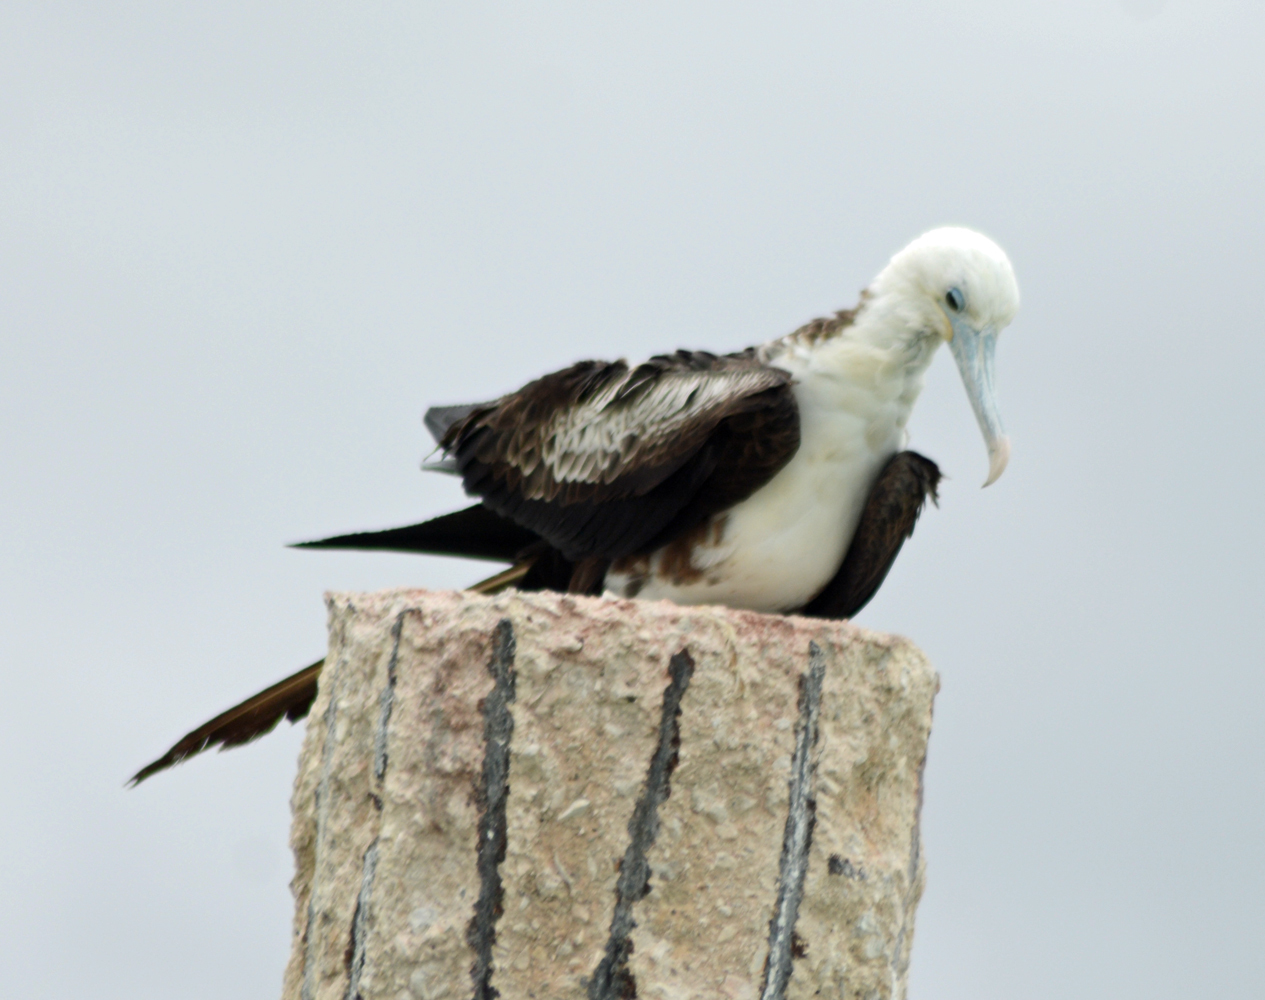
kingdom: Animalia
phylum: Chordata
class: Aves
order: Suliformes
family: Fregatidae
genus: Fregata
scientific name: Fregata magnificens
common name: Magnificent frigatebird
